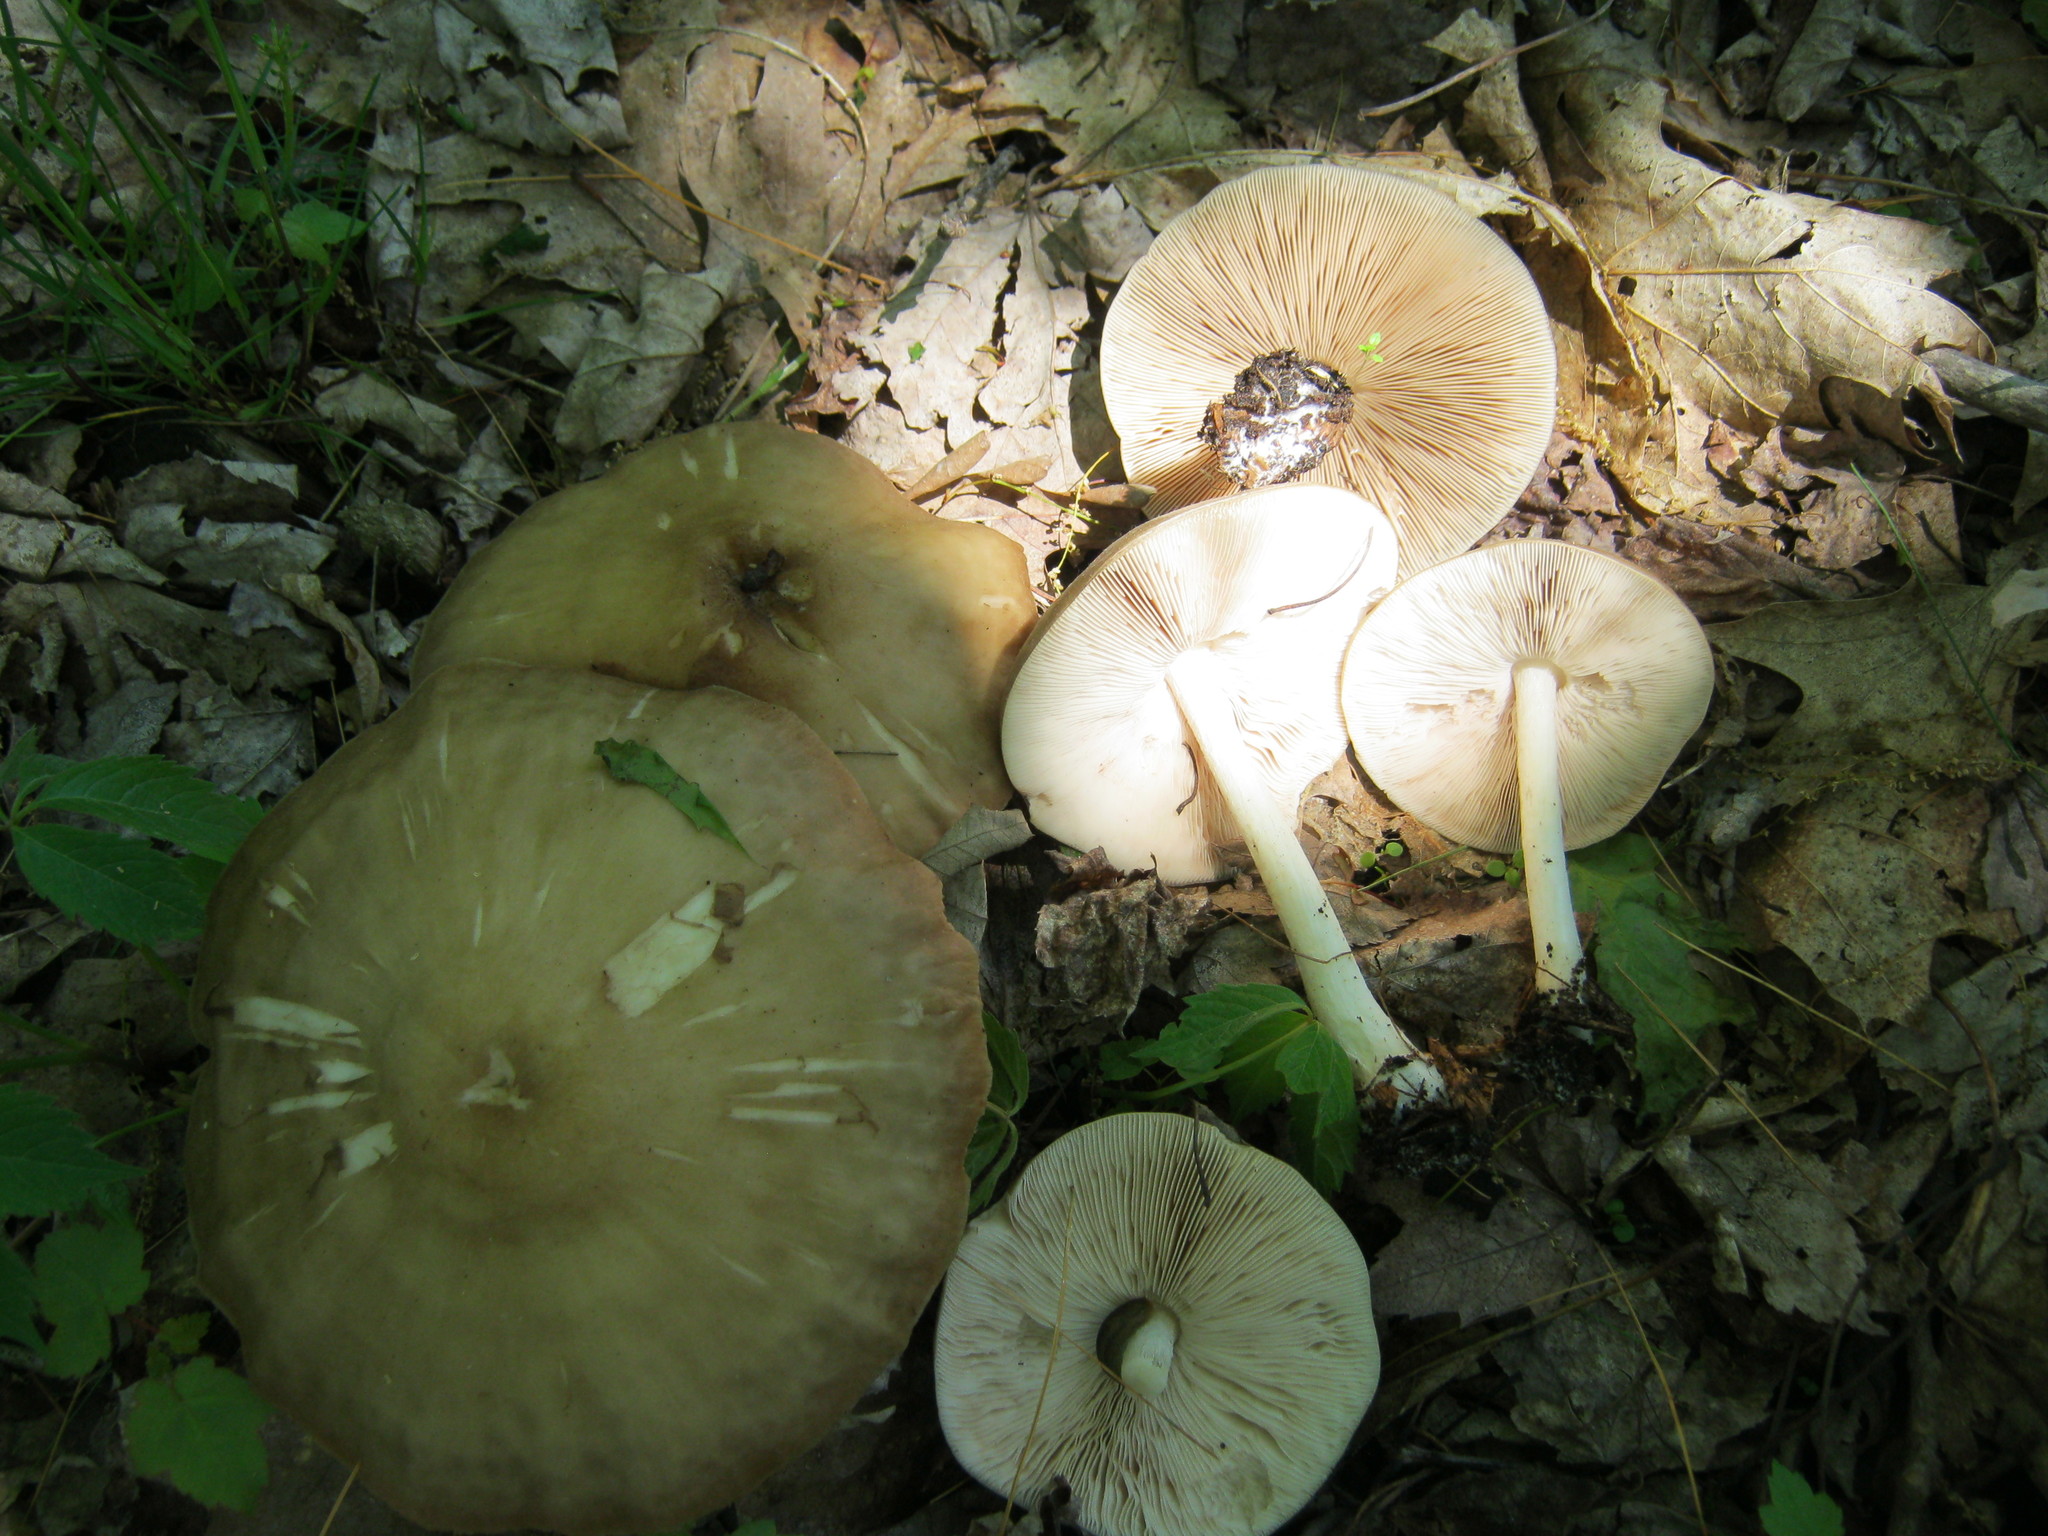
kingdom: Fungi
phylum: Basidiomycota
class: Agaricomycetes
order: Agaricales
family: Pluteaceae
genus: Pluteus
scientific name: Pluteus cervinus
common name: Deer shield
